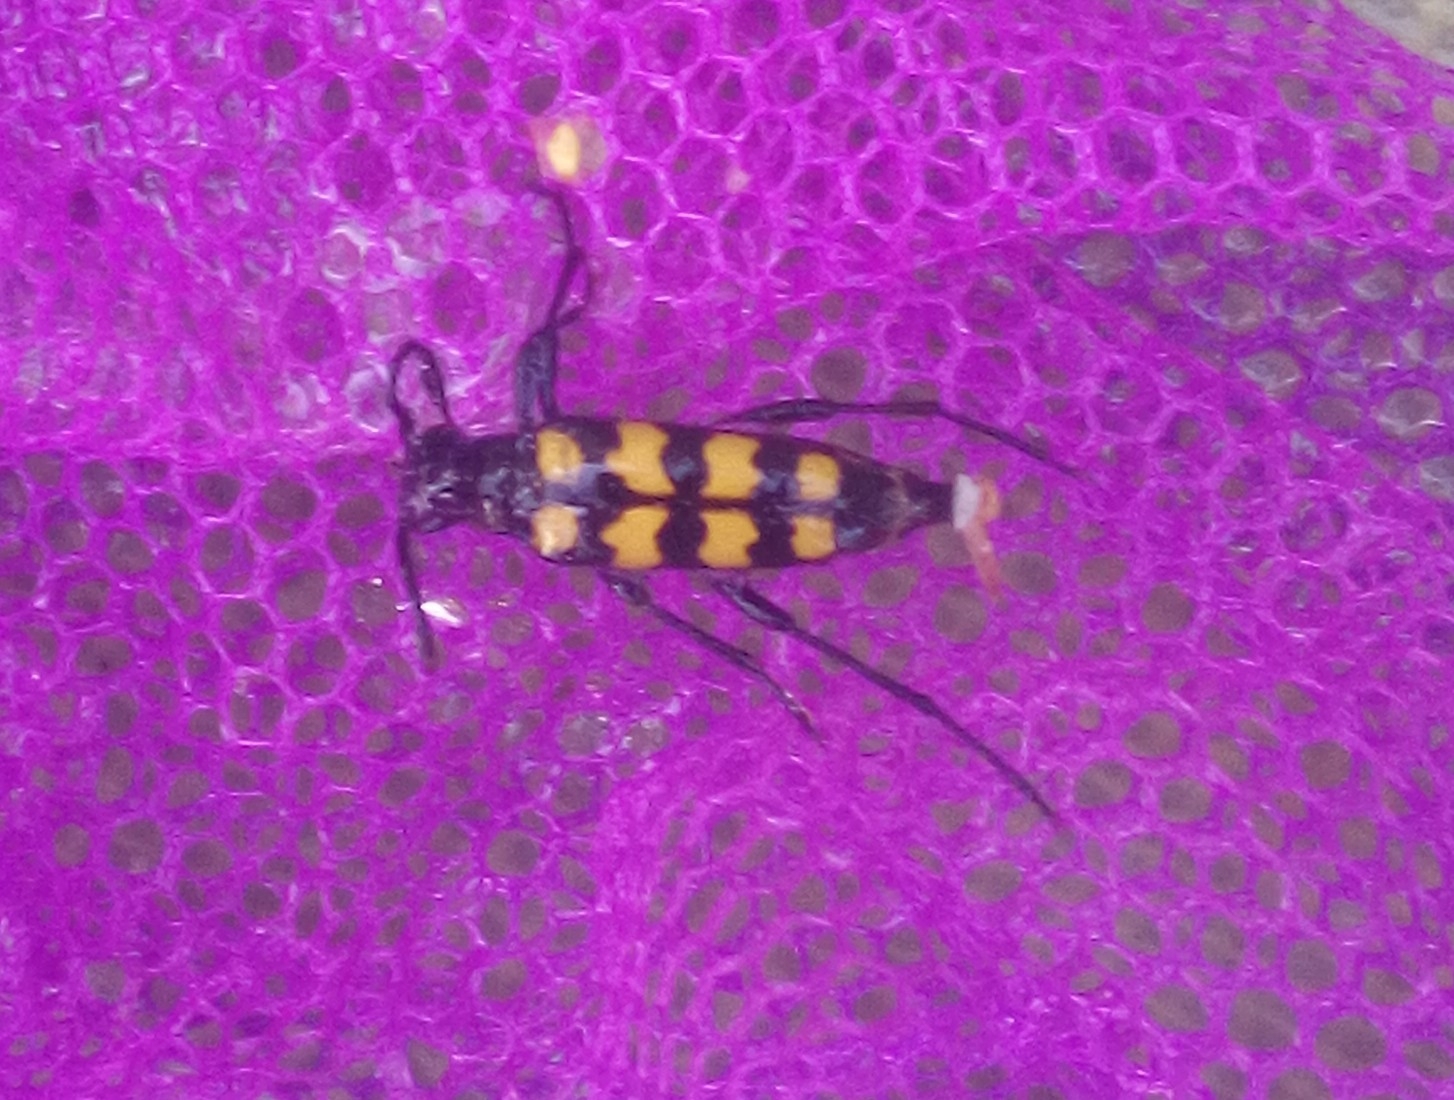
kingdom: Animalia
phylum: Arthropoda
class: Insecta
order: Coleoptera
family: Cerambycidae
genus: Leptura
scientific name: Leptura quadrifasciata
